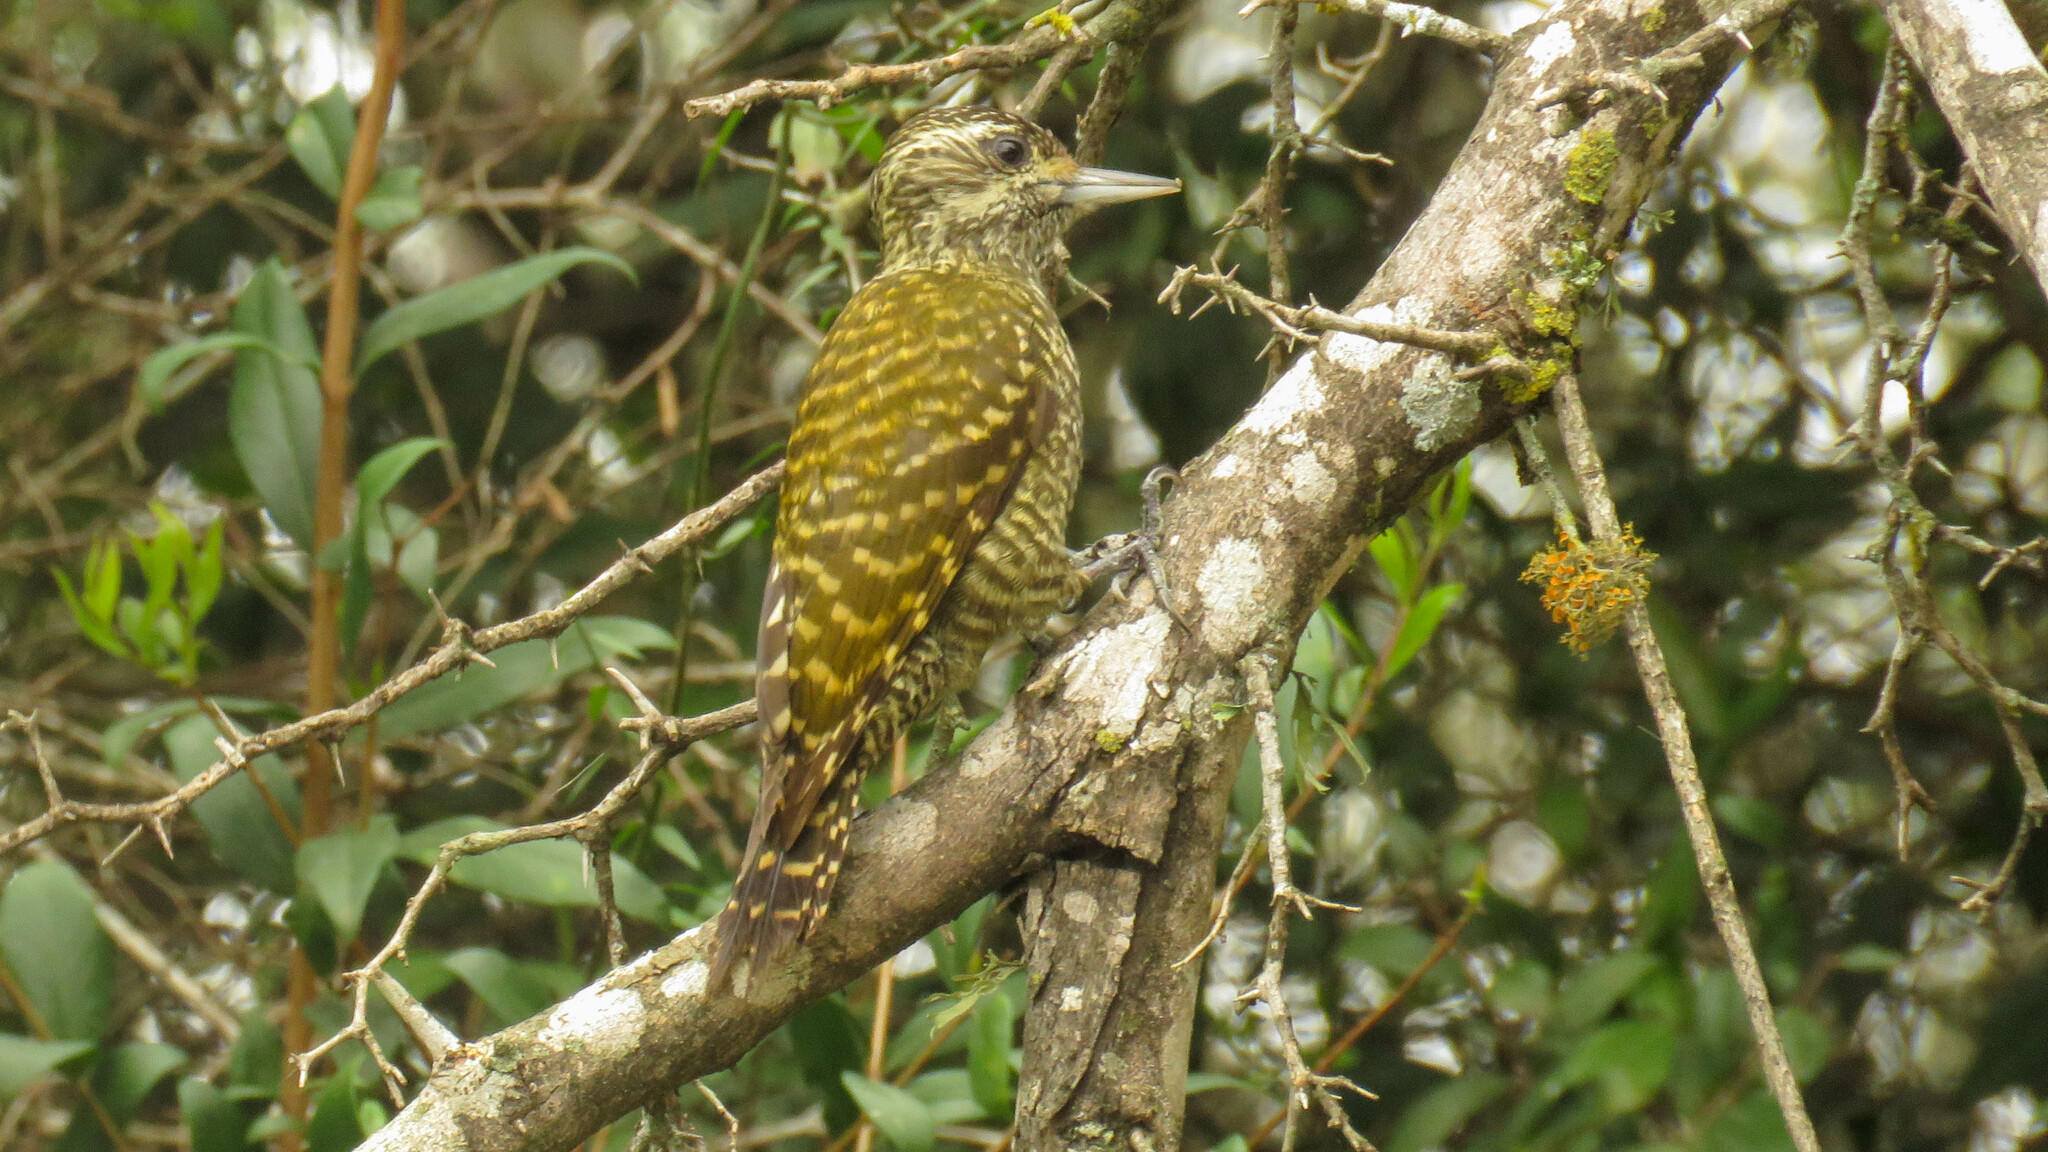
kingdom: Animalia
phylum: Chordata
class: Aves
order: Piciformes
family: Picidae
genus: Veniliornis
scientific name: Veniliornis spilogaster
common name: White-spotted woodpecker
